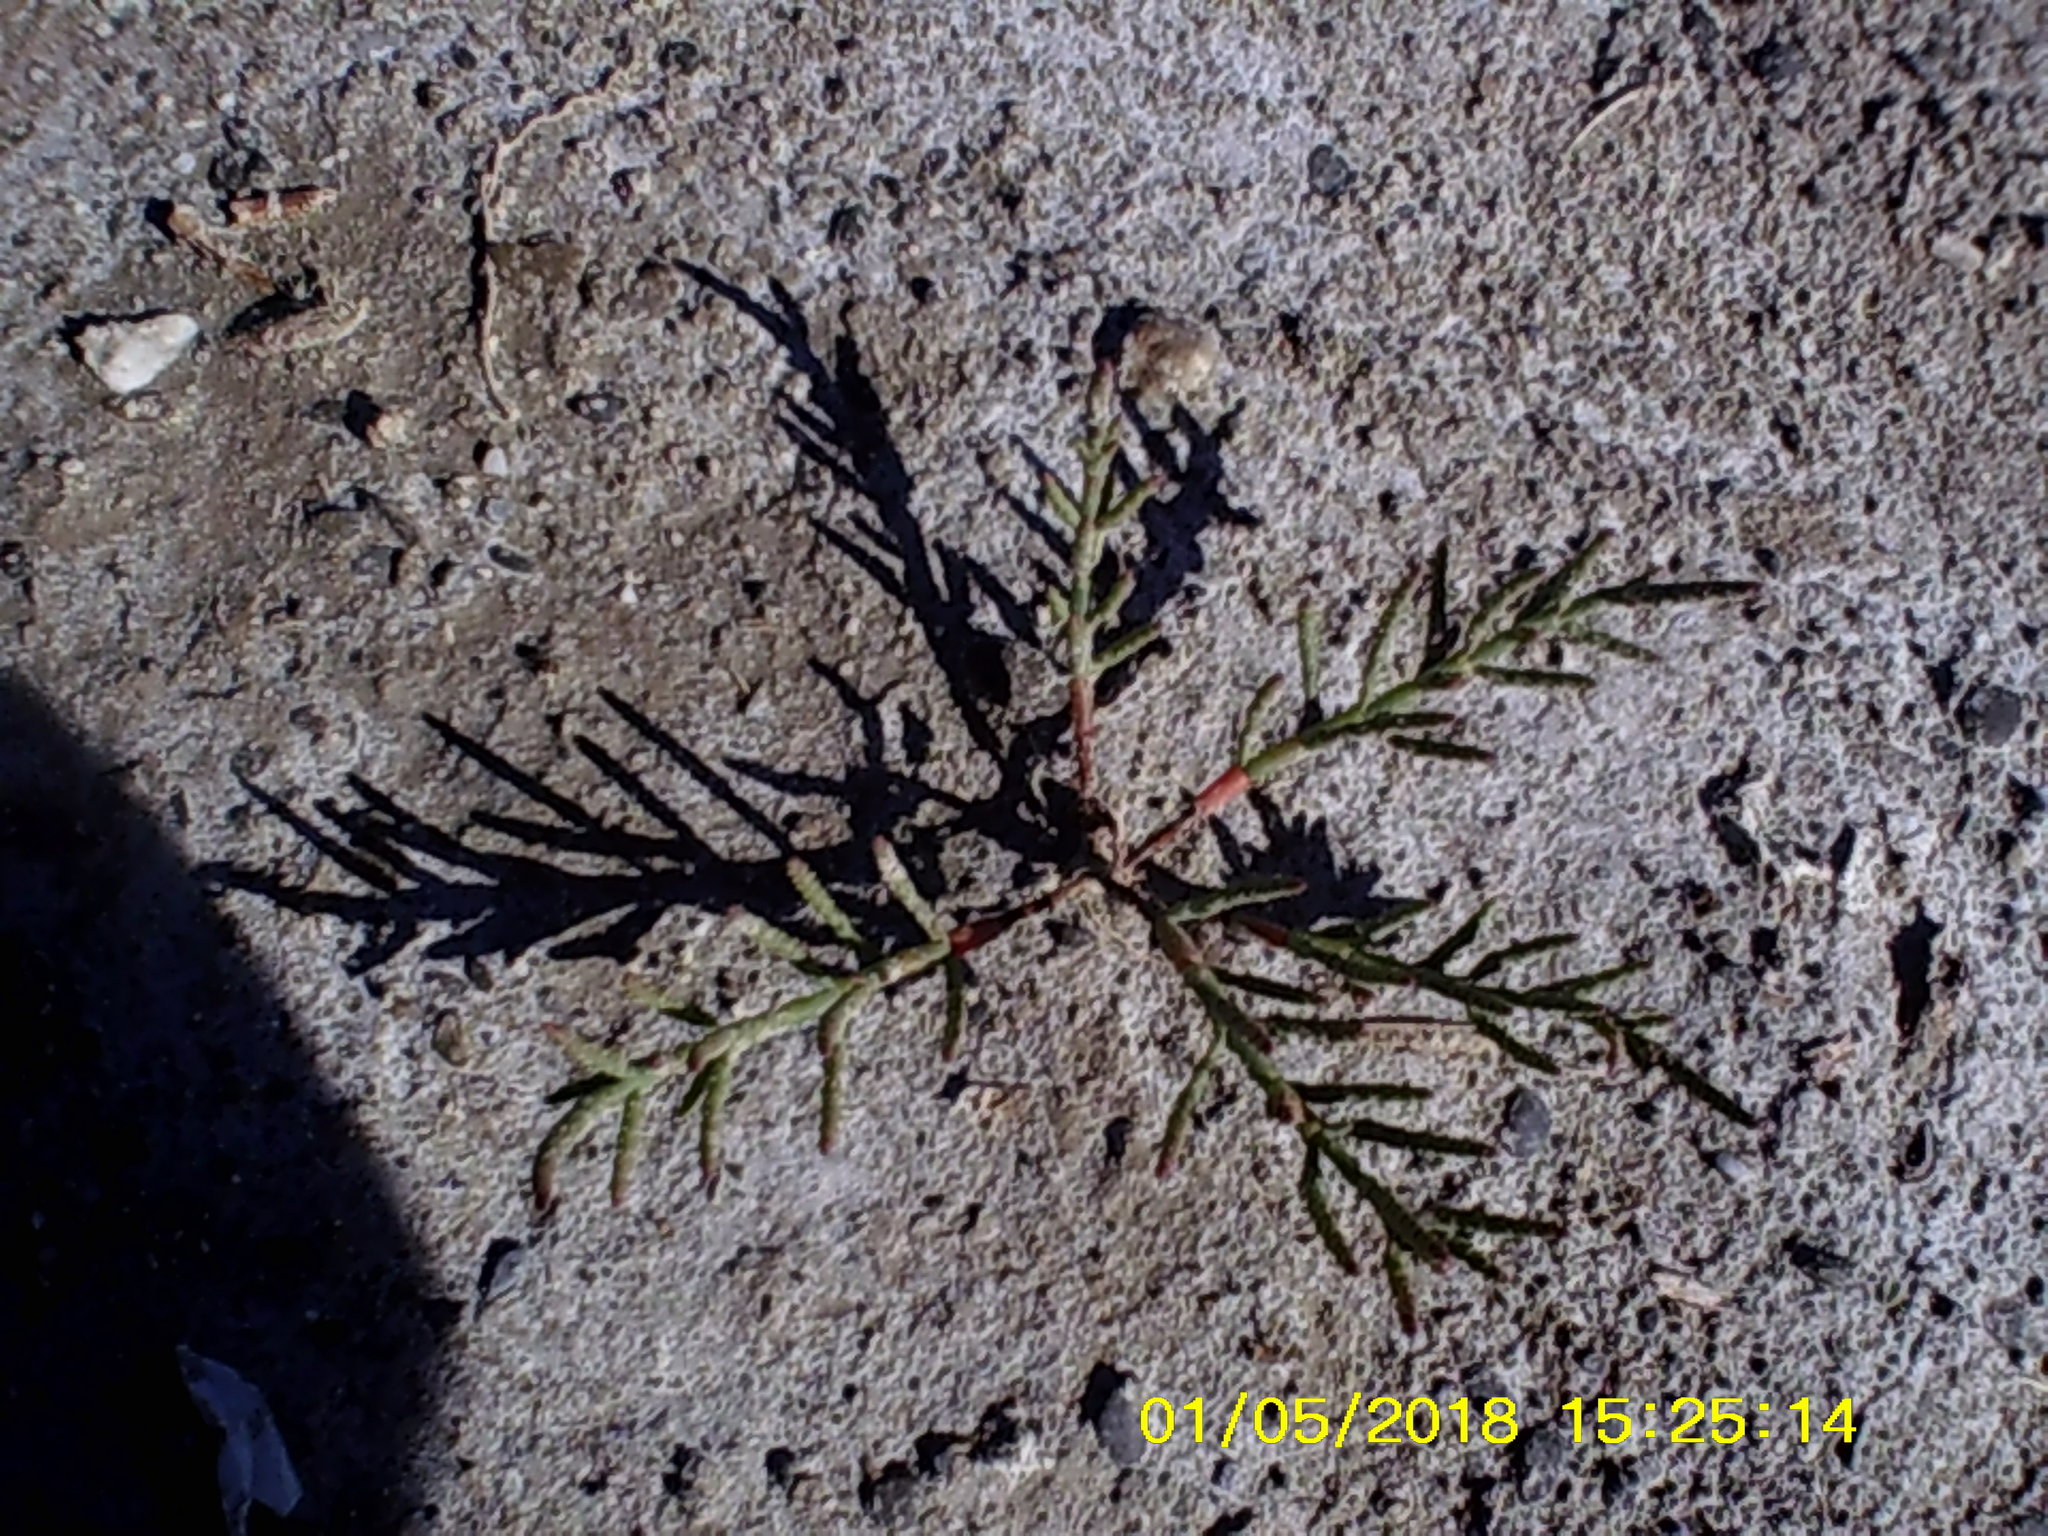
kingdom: Plantae
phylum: Tracheophyta
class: Magnoliopsida
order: Caryophyllales
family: Amaranthaceae
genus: Salicornia
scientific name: Salicornia perennans
